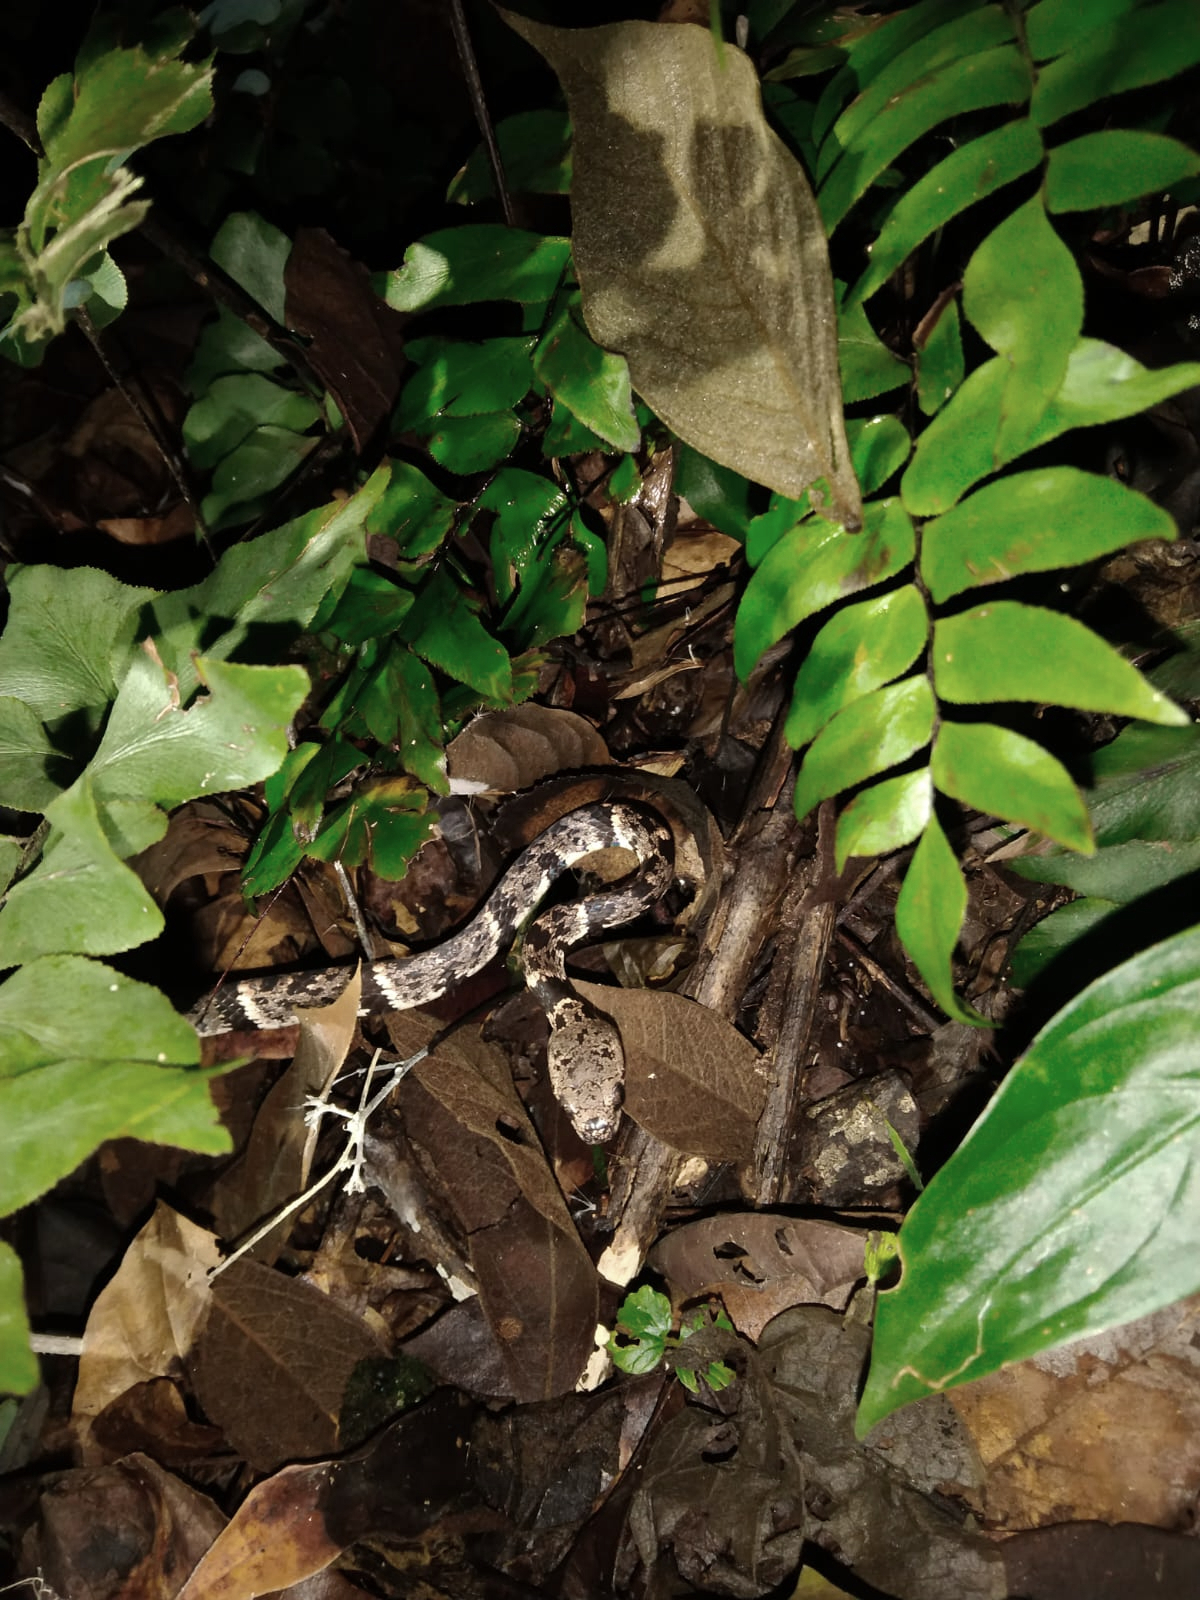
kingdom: Animalia
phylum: Chordata
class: Squamata
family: Colubridae
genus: Sibon
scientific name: Sibon nebulatus
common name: Cloudy snail-eating snake
